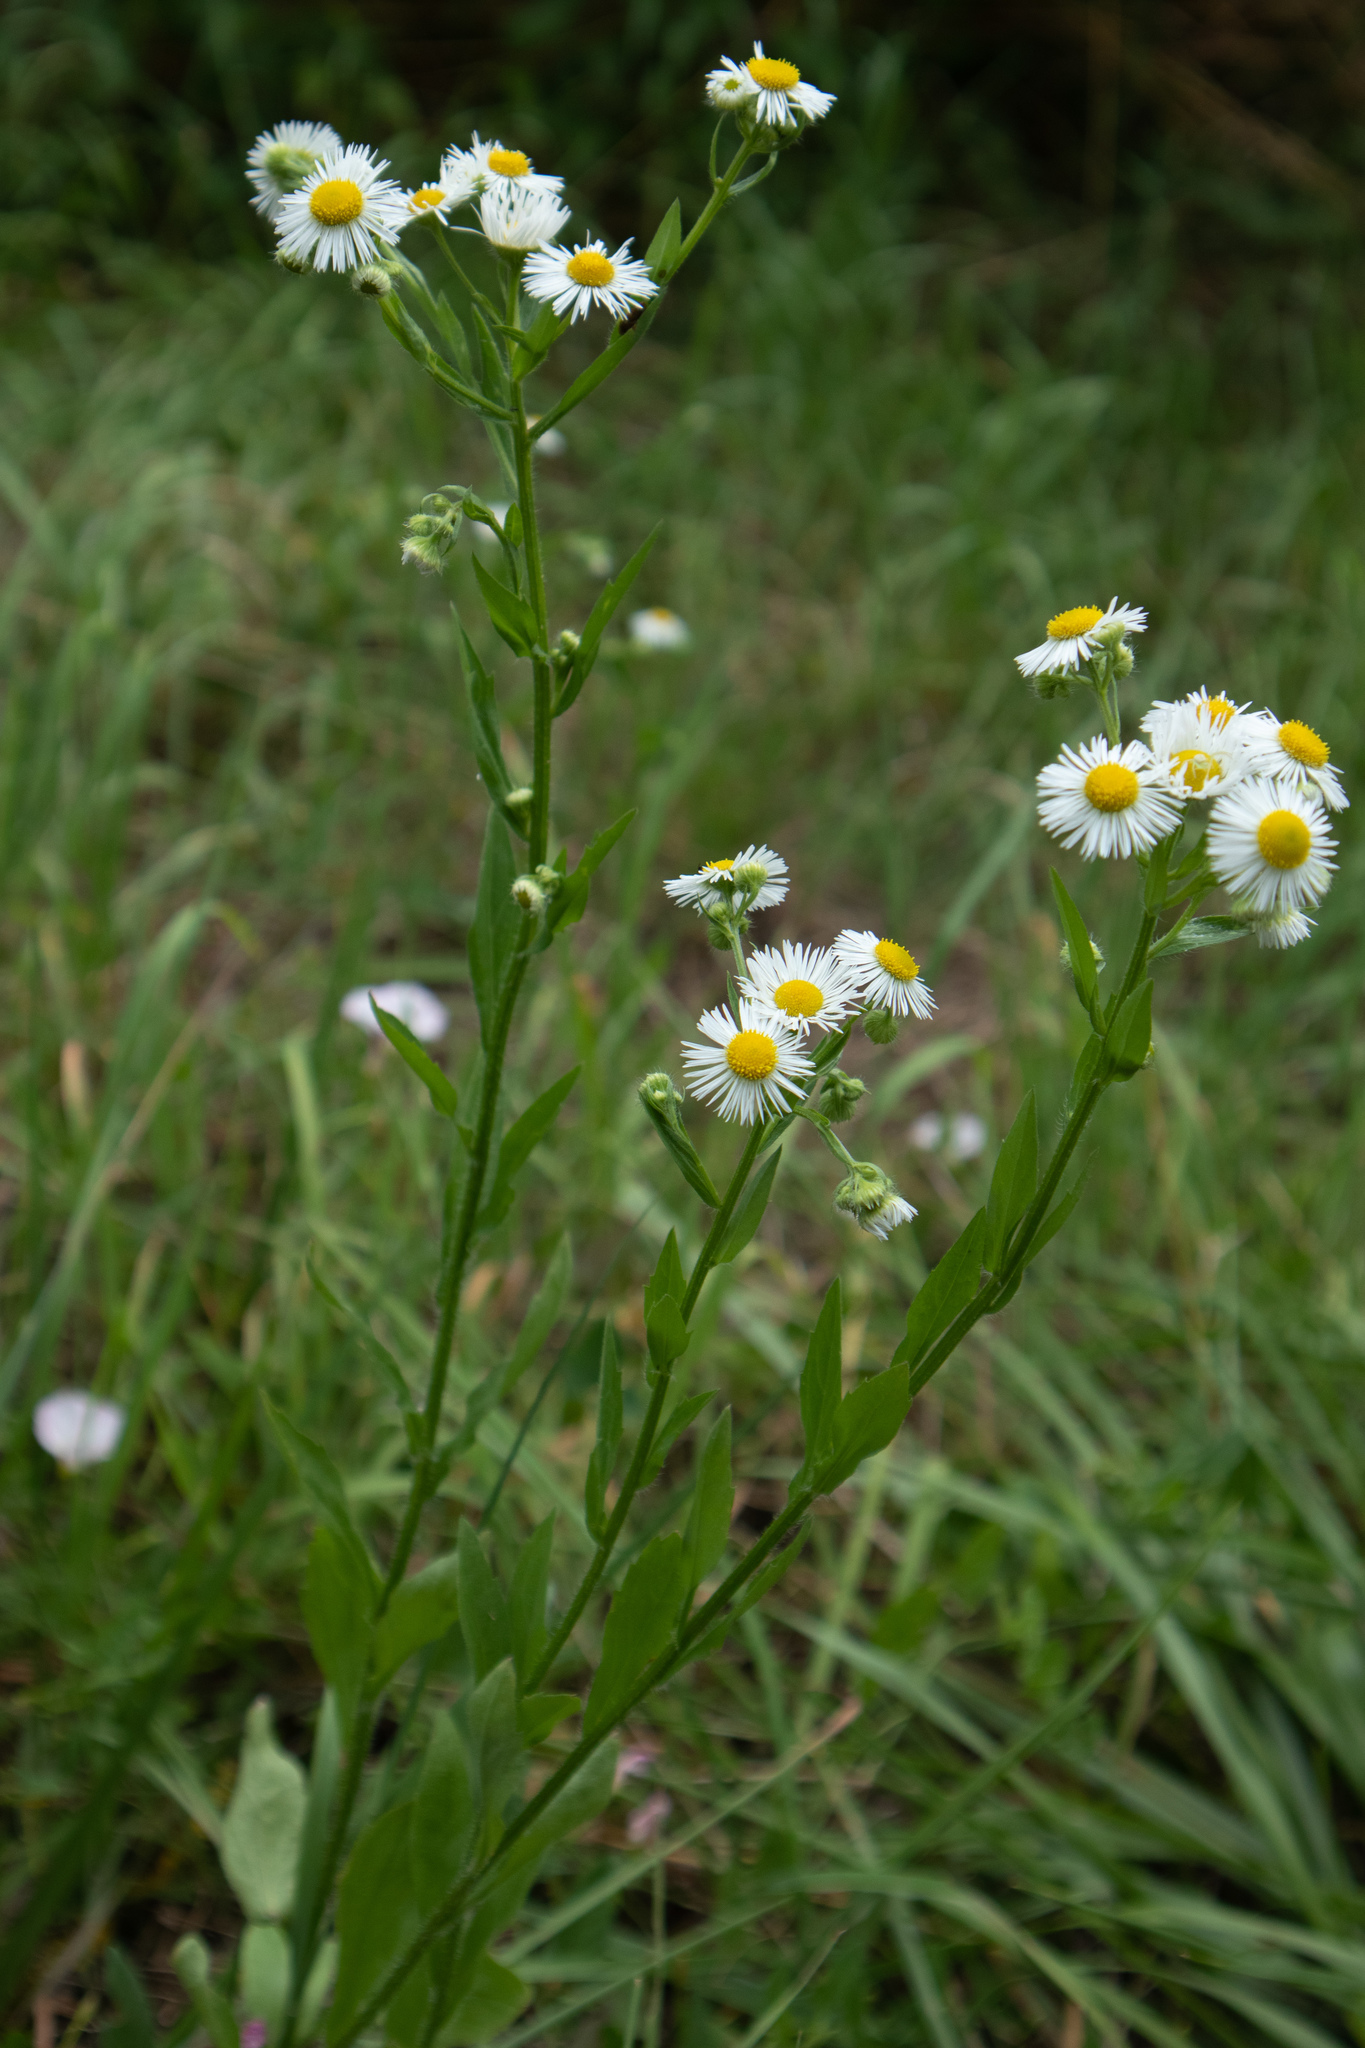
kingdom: Plantae
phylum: Tracheophyta
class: Magnoliopsida
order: Asterales
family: Asteraceae
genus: Erigeron
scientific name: Erigeron annuus
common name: Tall fleabane
